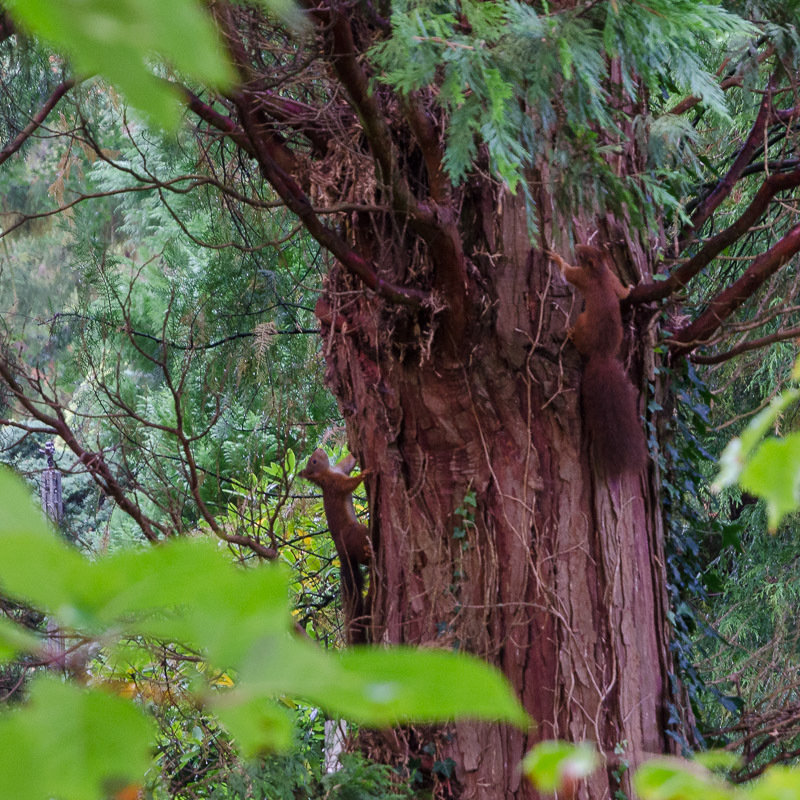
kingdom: Animalia
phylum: Chordata
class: Mammalia
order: Rodentia
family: Sciuridae
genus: Sciurus
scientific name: Sciurus vulgaris
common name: Eurasian red squirrel
